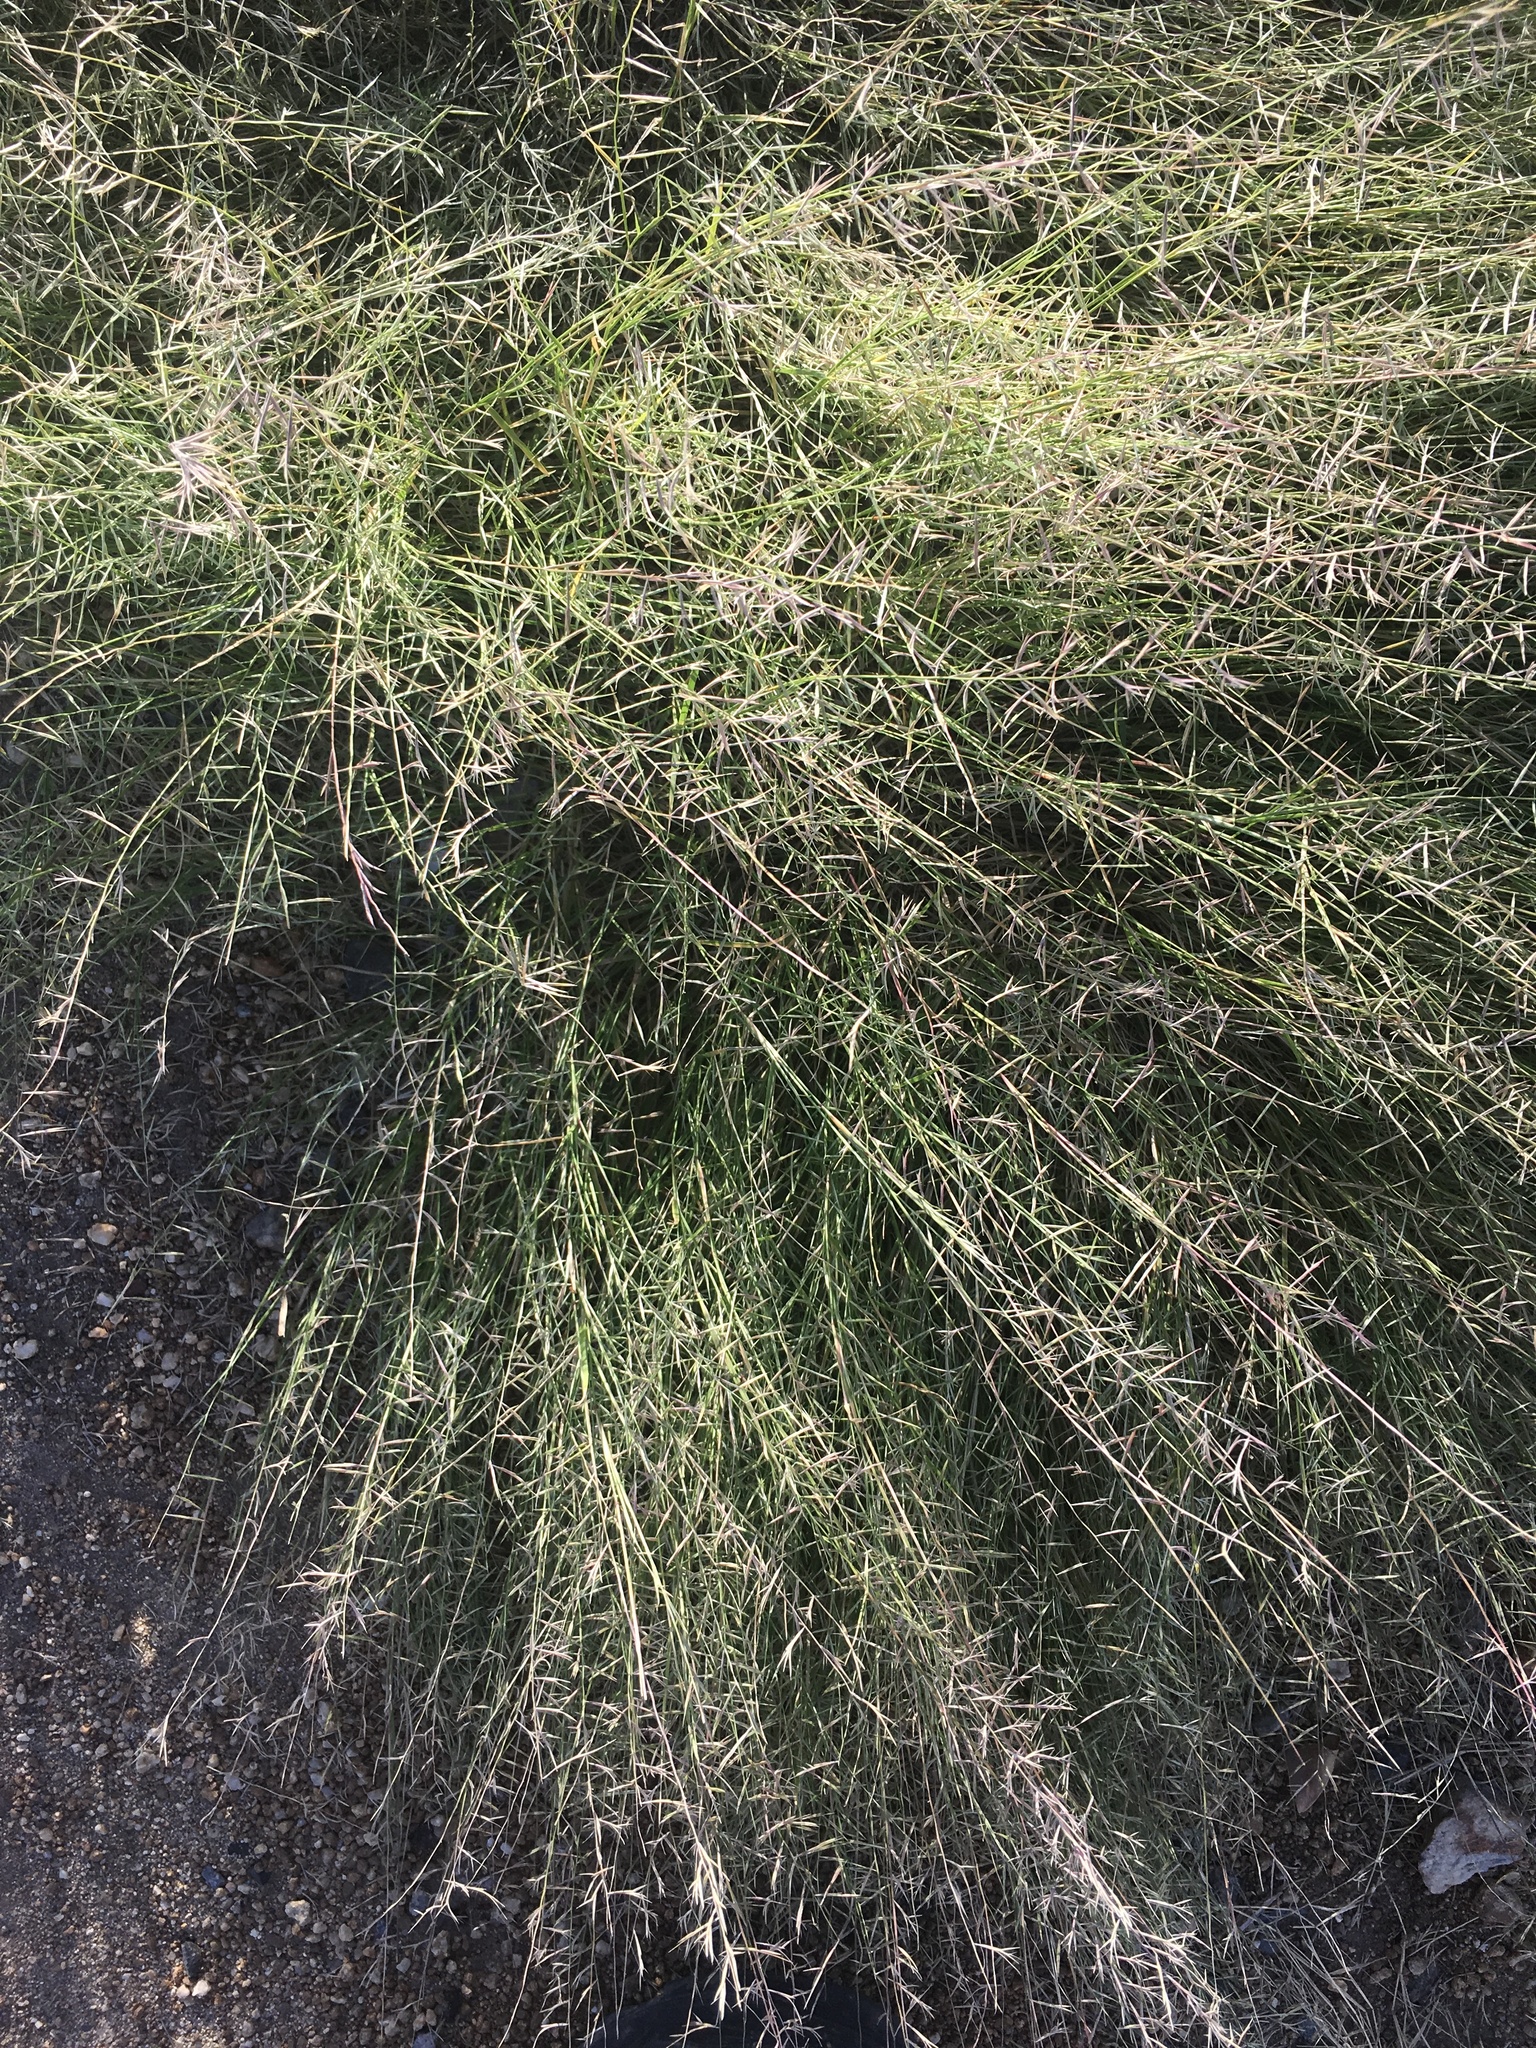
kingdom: Plantae
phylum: Tracheophyta
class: Liliopsida
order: Poales
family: Poaceae
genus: Bouteloua
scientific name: Bouteloua aristidoides
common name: Needle grama
